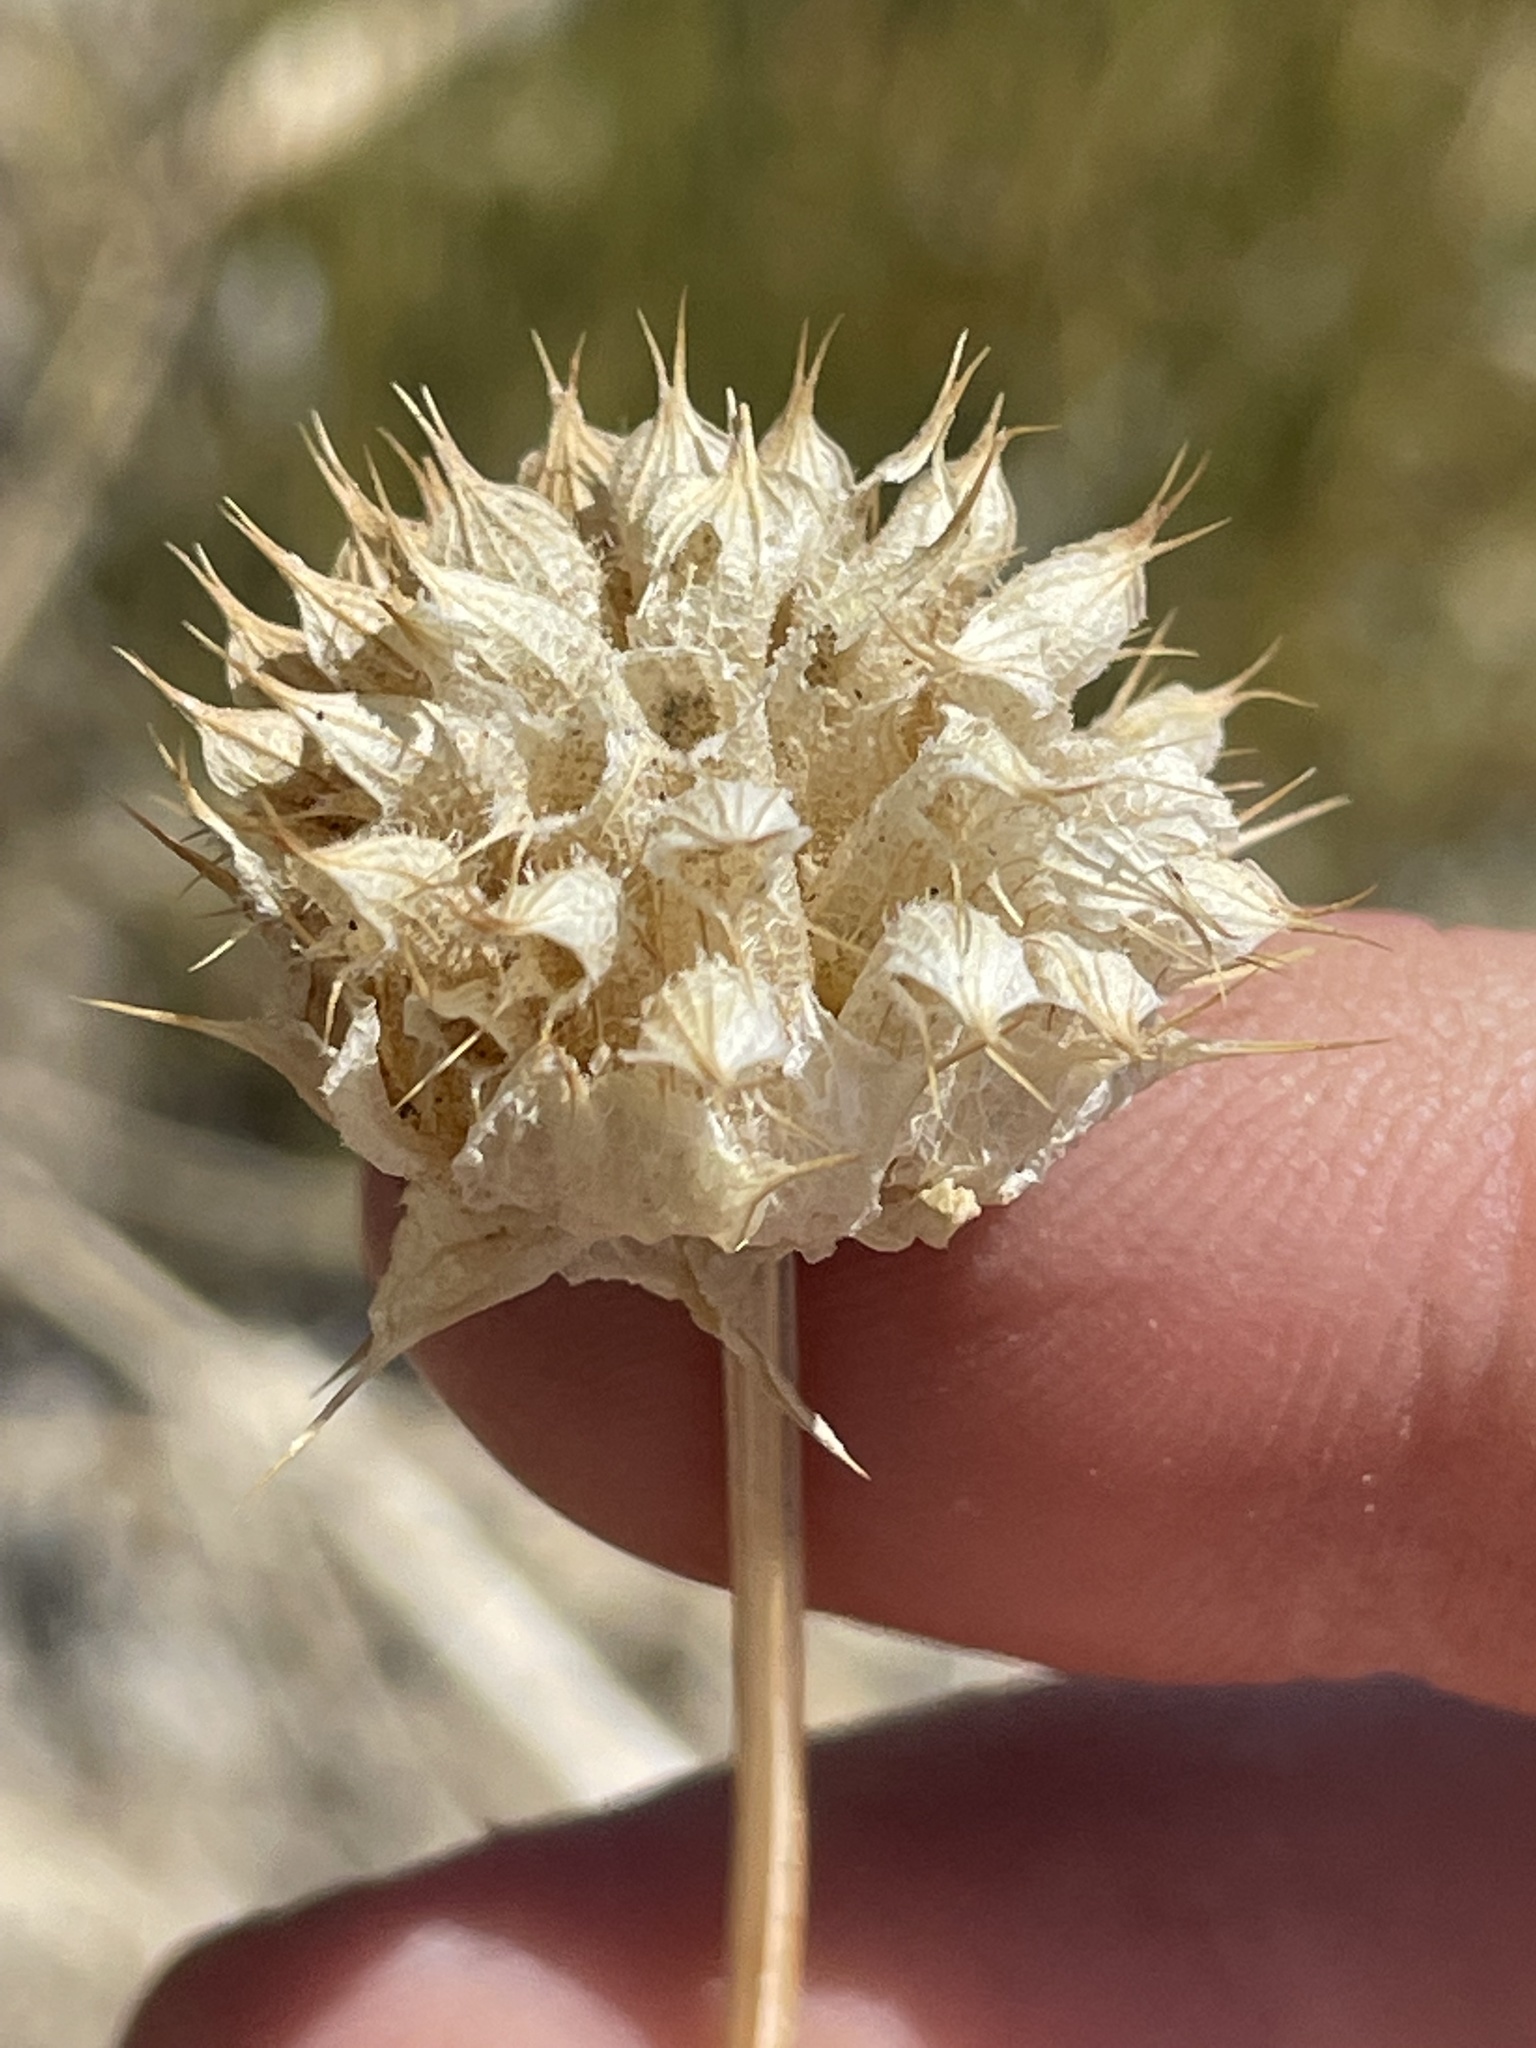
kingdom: Plantae
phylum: Tracheophyta
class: Magnoliopsida
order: Lamiales
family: Lamiaceae
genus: Salvia
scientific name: Salvia columbariae
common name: Chia
